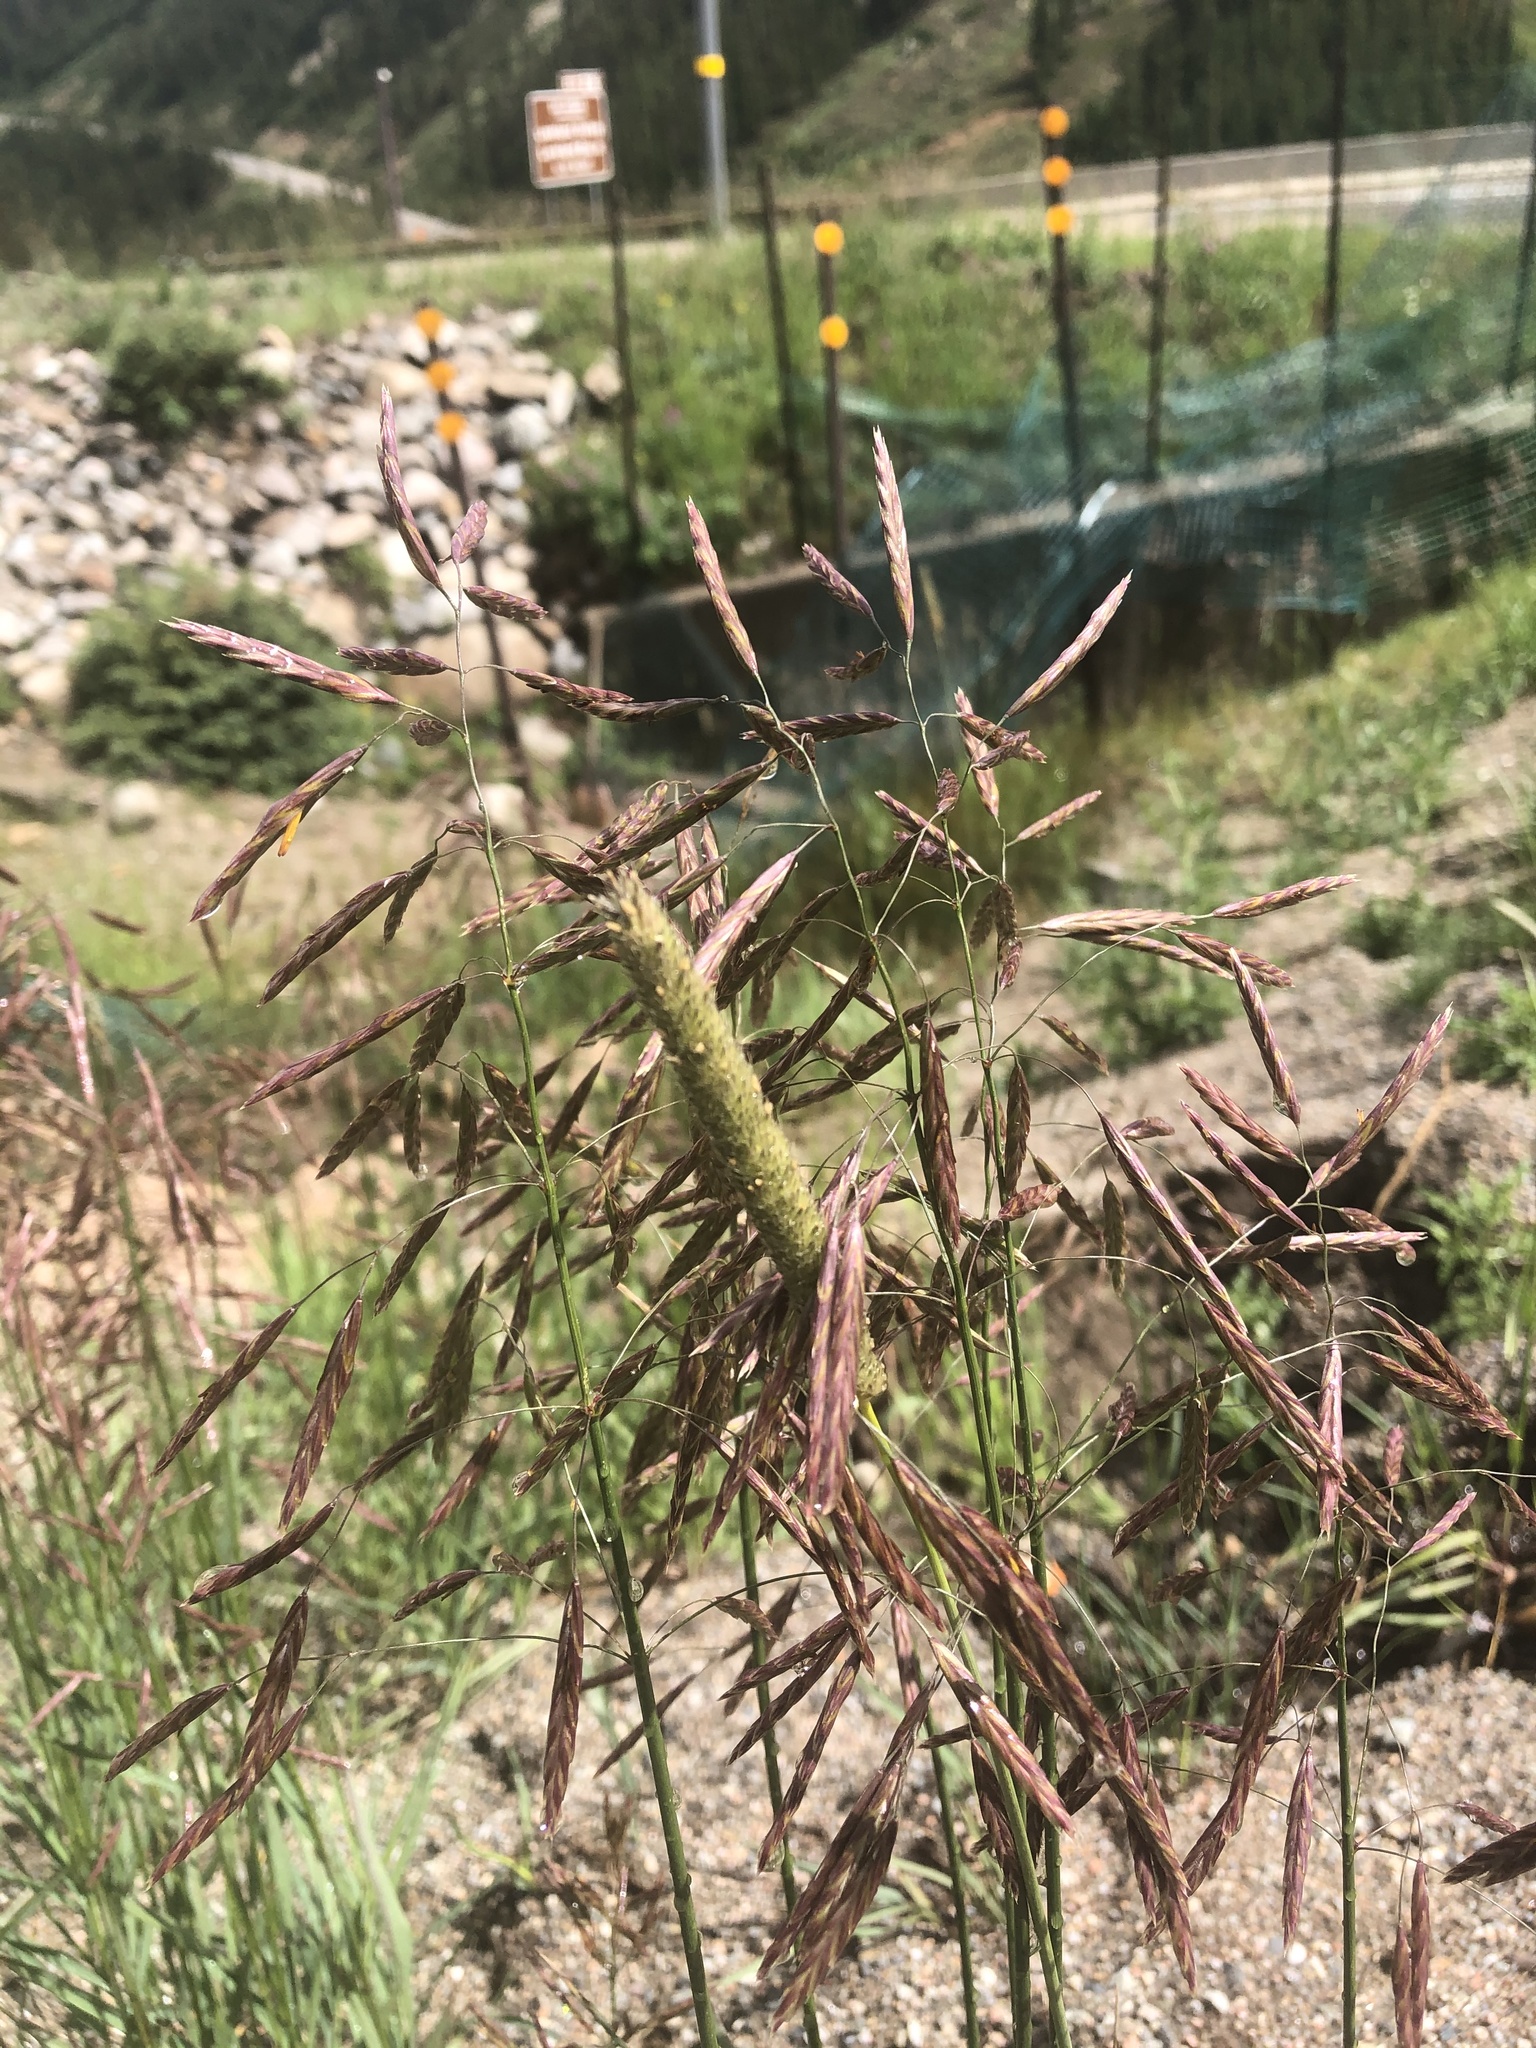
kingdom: Plantae
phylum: Tracheophyta
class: Liliopsida
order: Poales
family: Poaceae
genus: Bromus
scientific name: Bromus inermis
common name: Smooth brome
